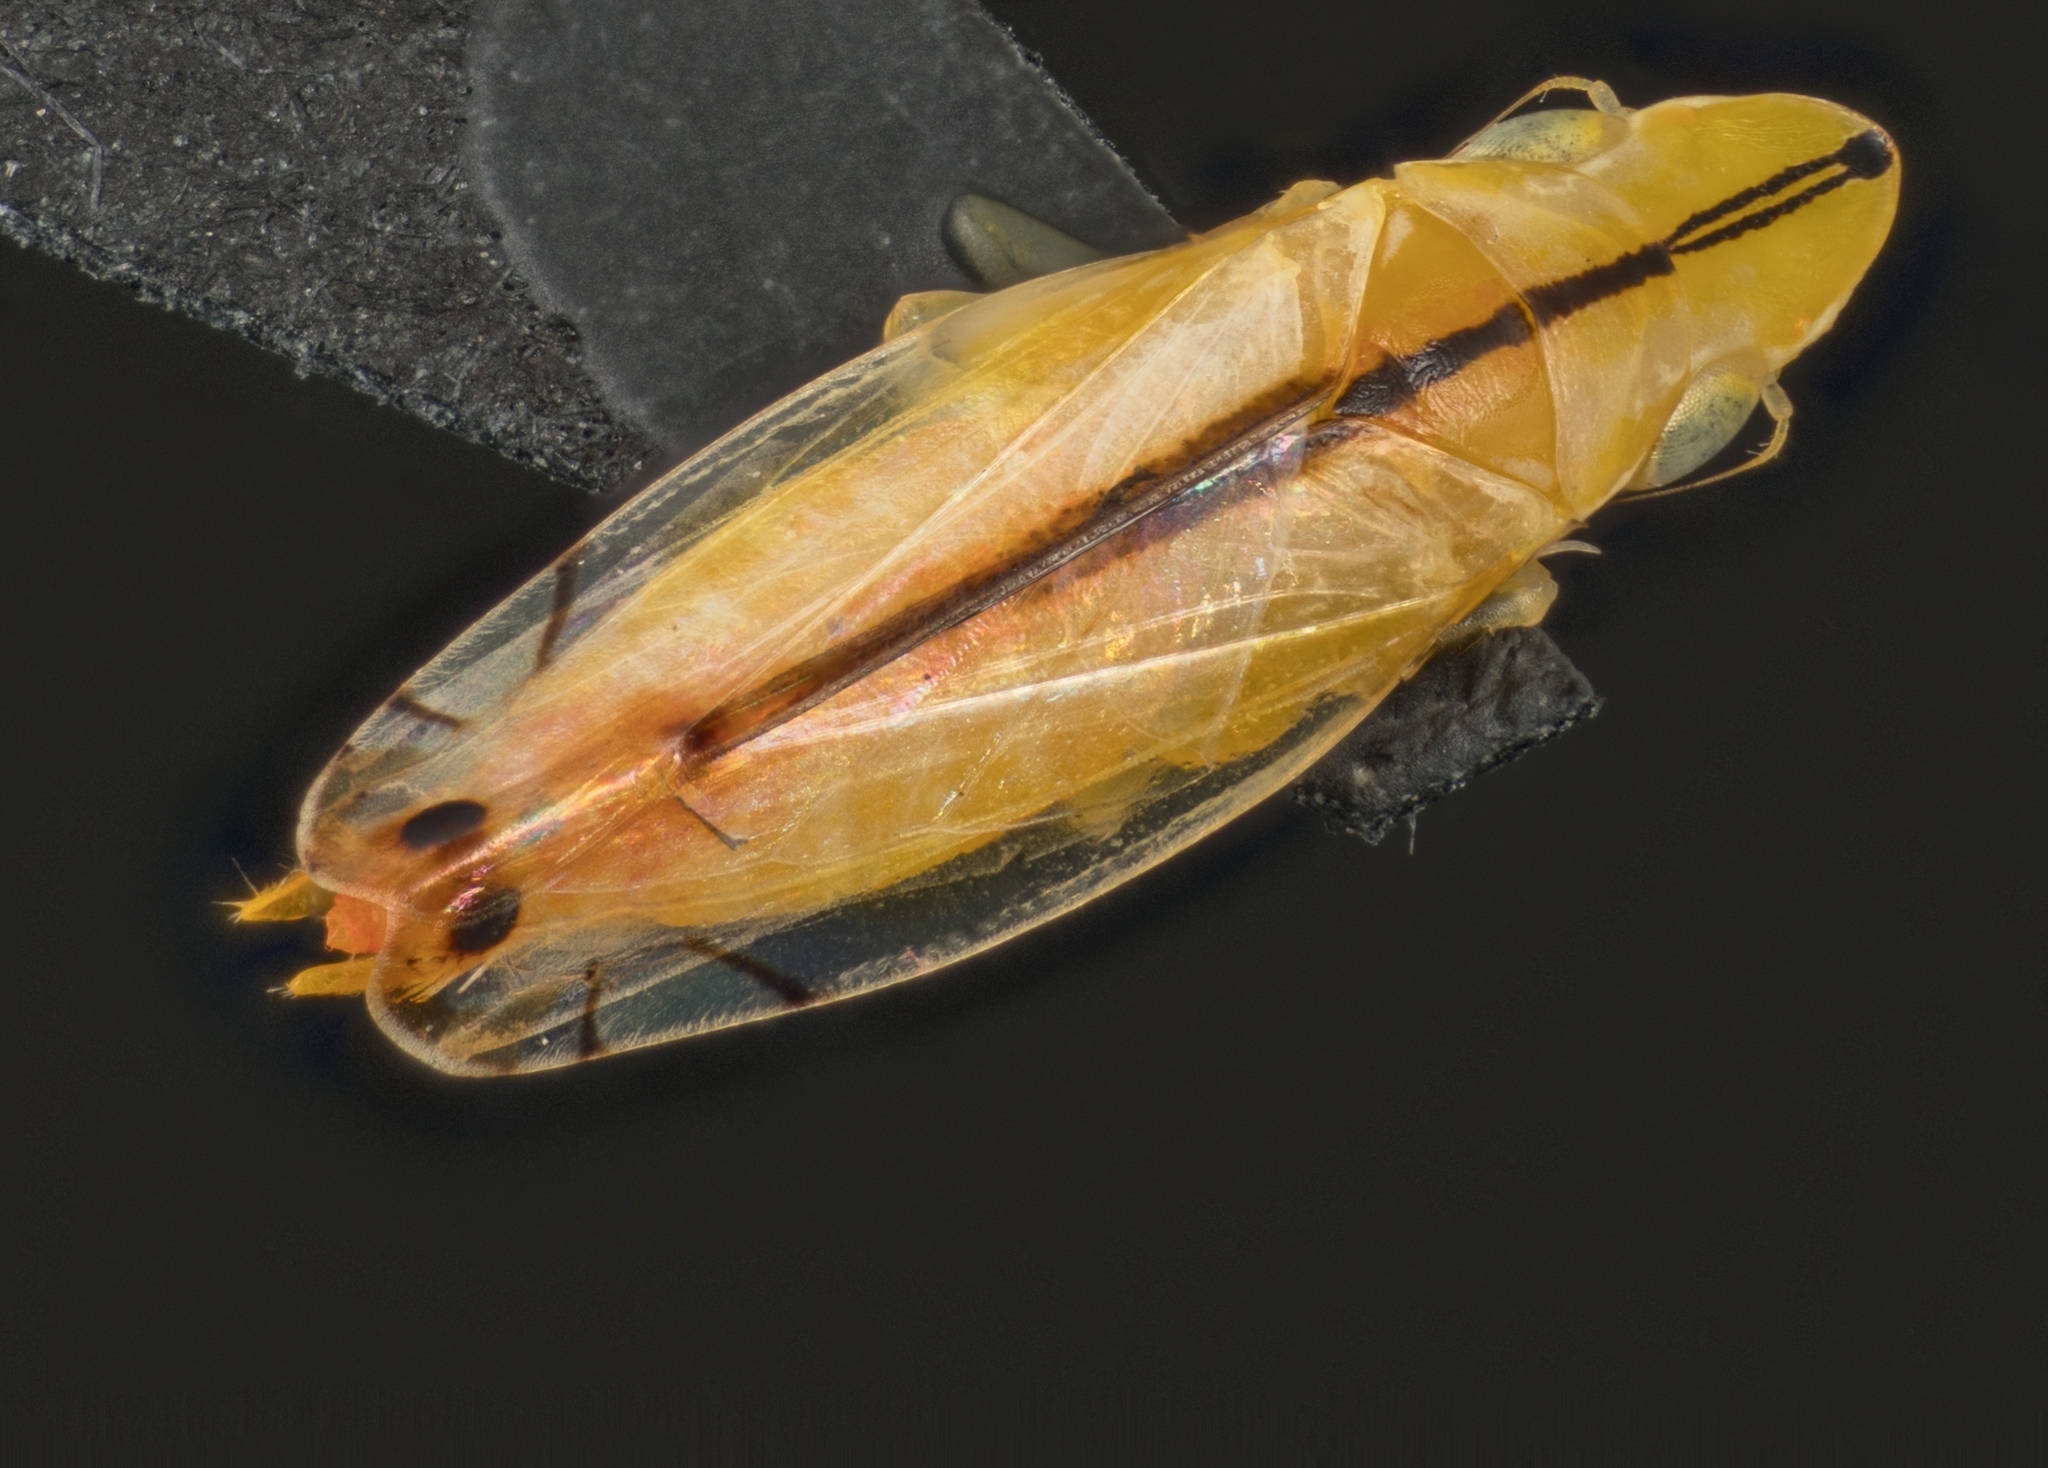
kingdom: Animalia
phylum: Arthropoda
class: Insecta
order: Hemiptera
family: Cicadellidae
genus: Sophonia
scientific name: Sophonia orientalis
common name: Two-spotted leafhopper
